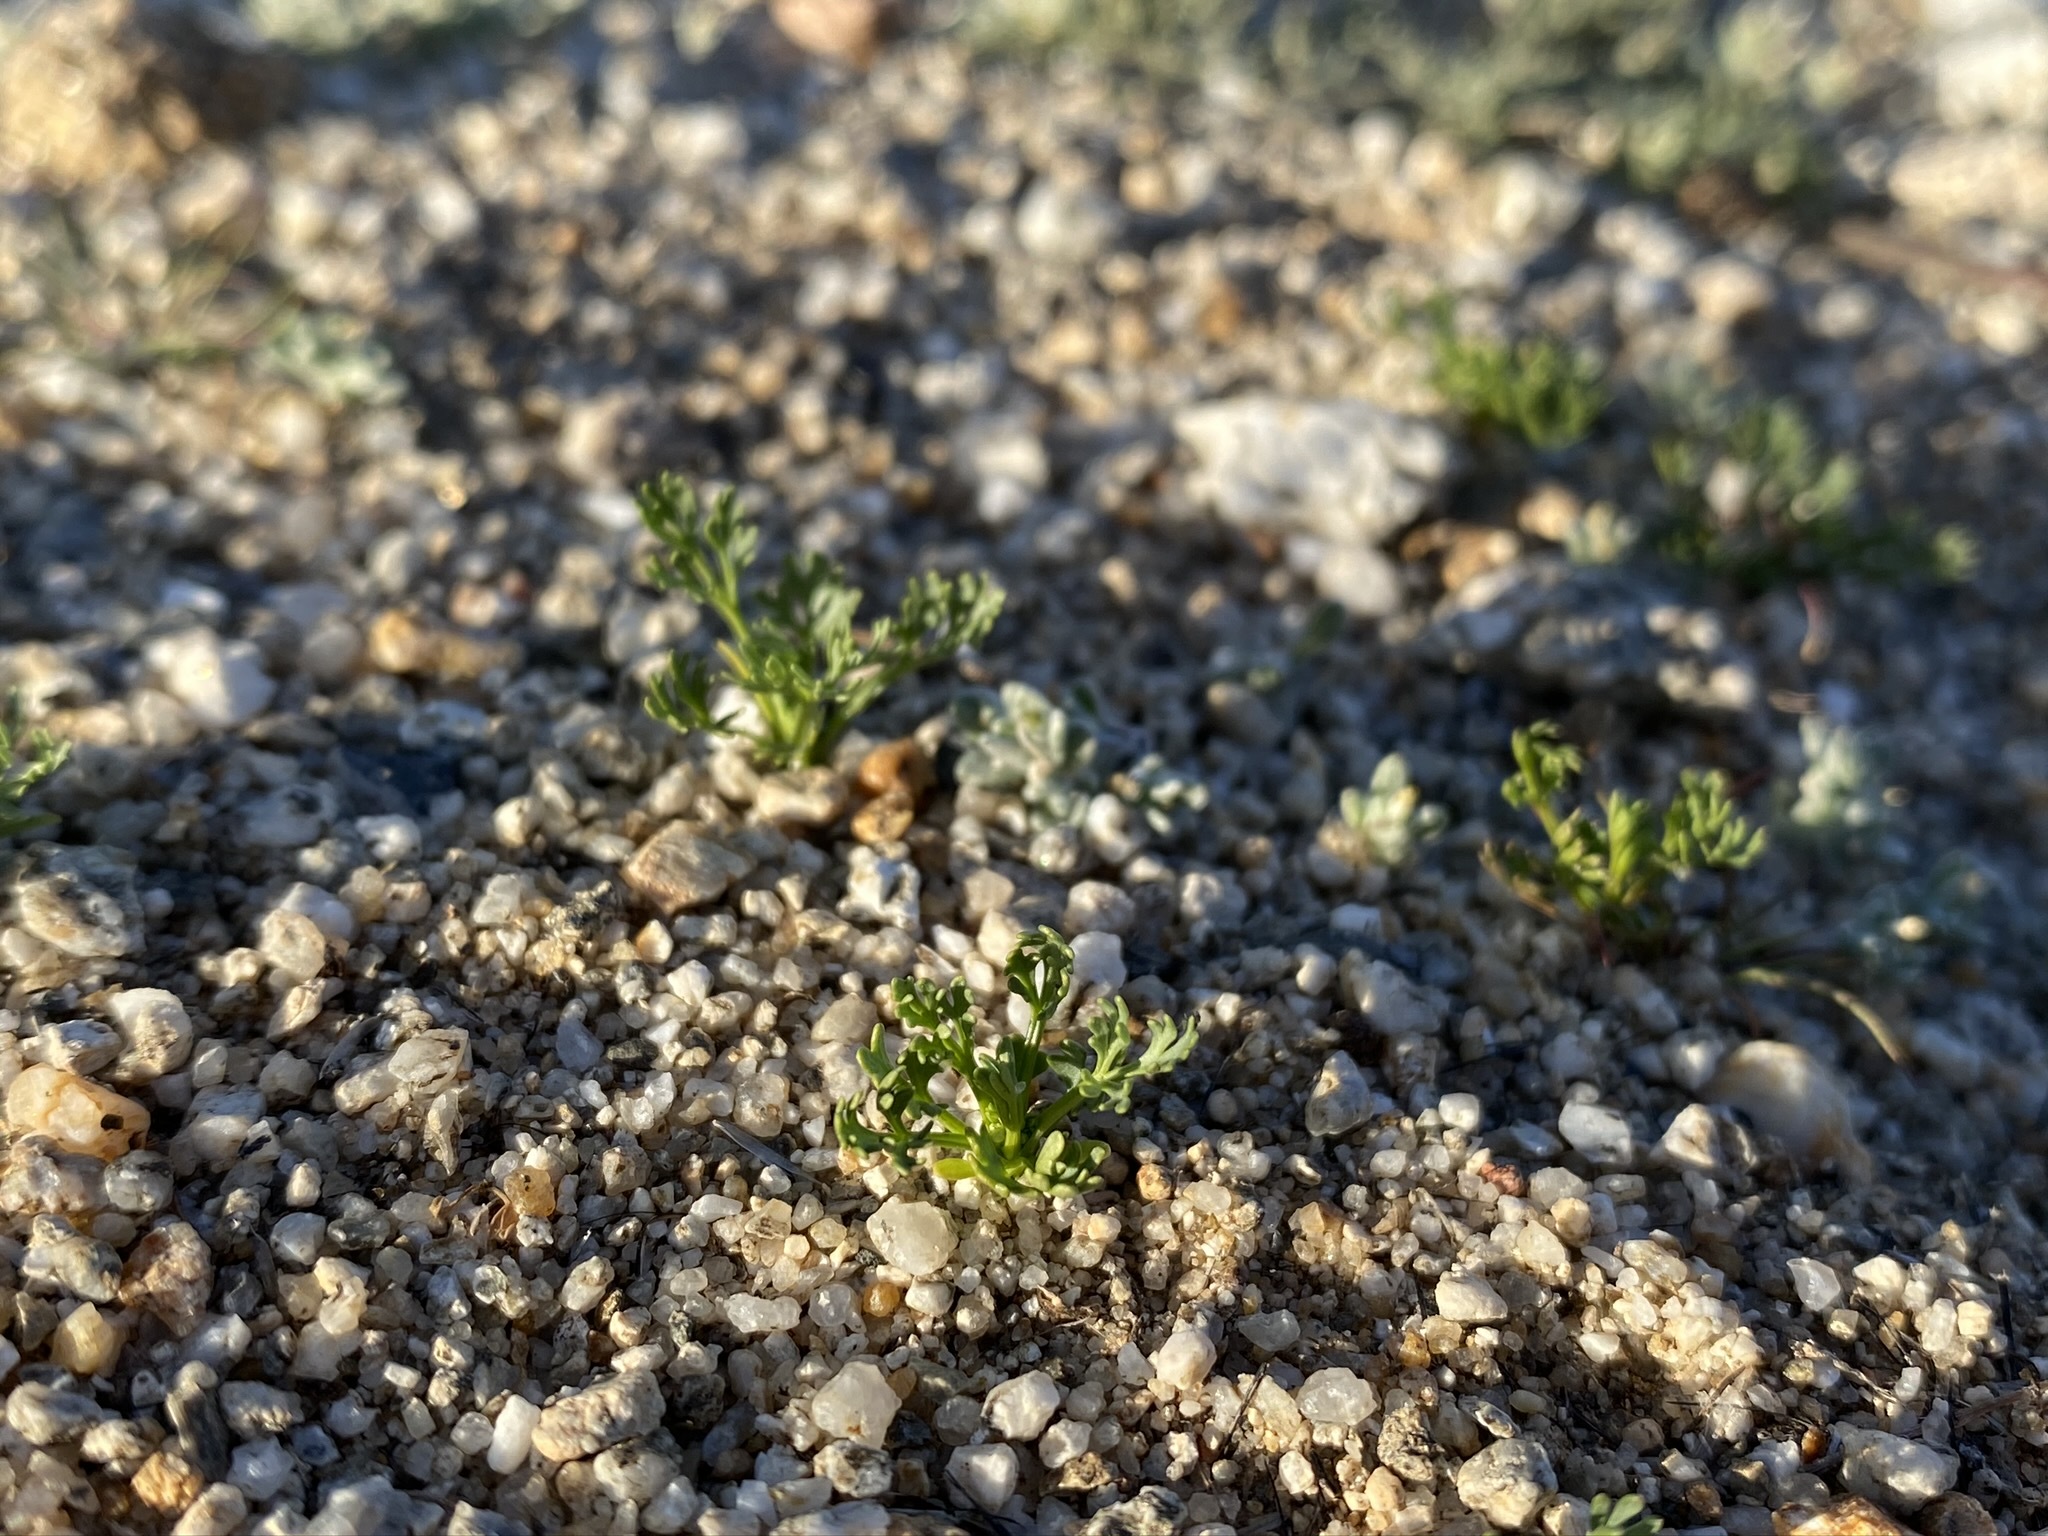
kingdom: Plantae
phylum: Tracheophyta
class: Magnoliopsida
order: Apiales
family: Apiaceae
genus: Spermolepis
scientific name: Spermolepis infernensis
